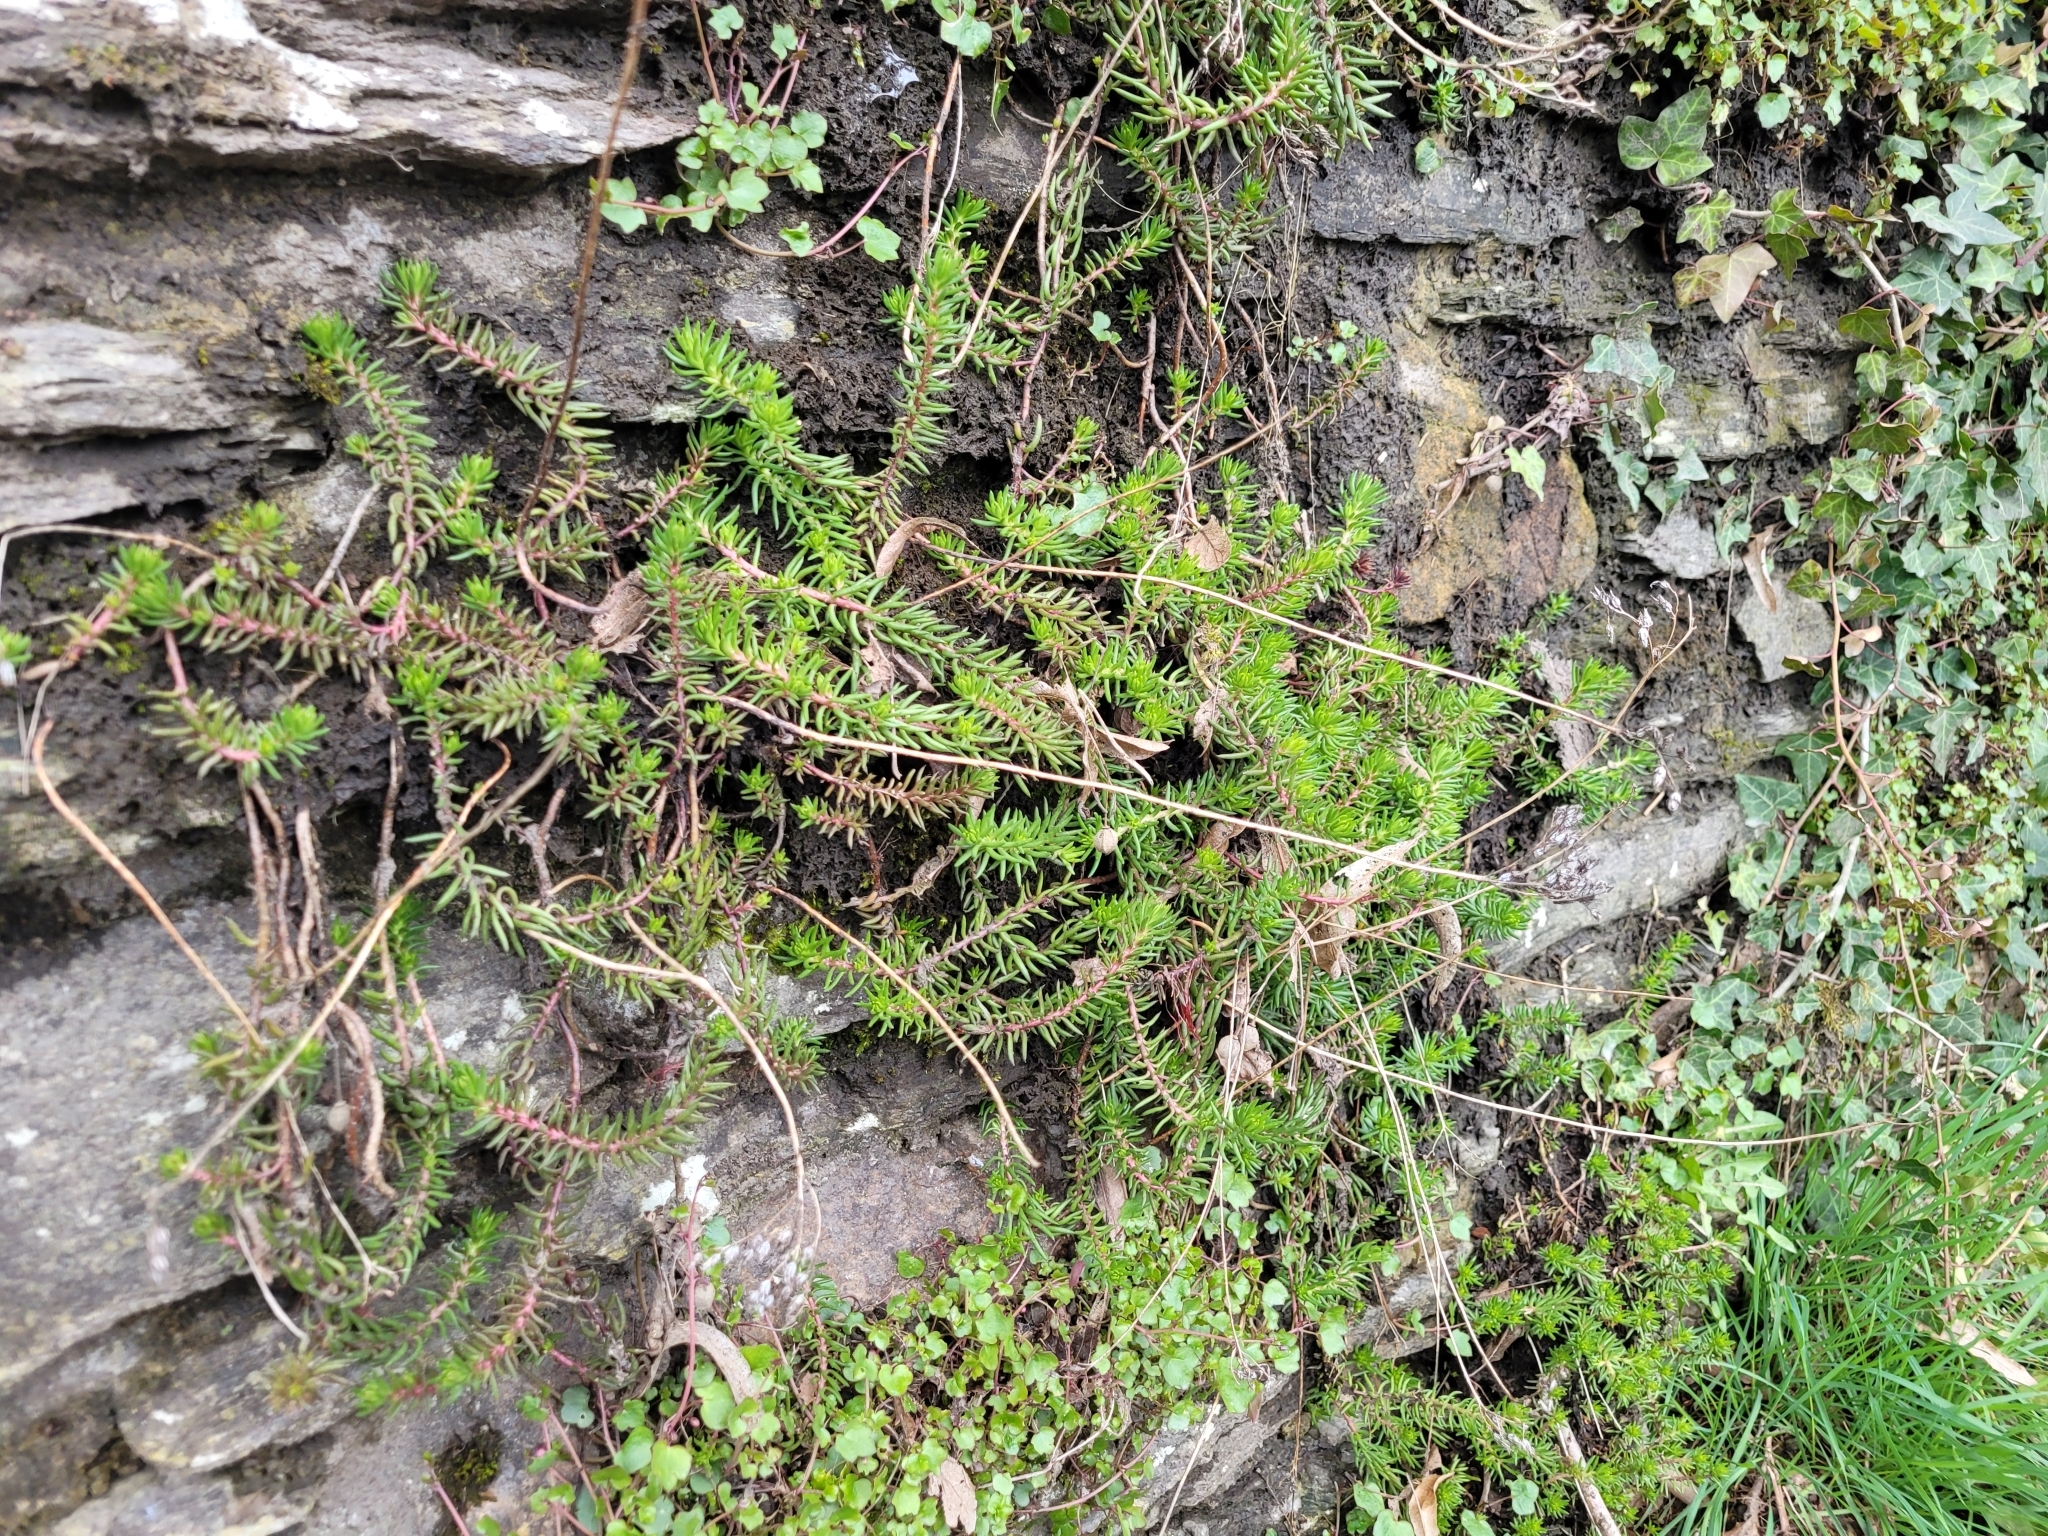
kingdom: Plantae
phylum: Tracheophyta
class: Magnoliopsida
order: Saxifragales
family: Crassulaceae
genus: Petrosedum
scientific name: Petrosedum rupestre
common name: Jenny's stonecrop
